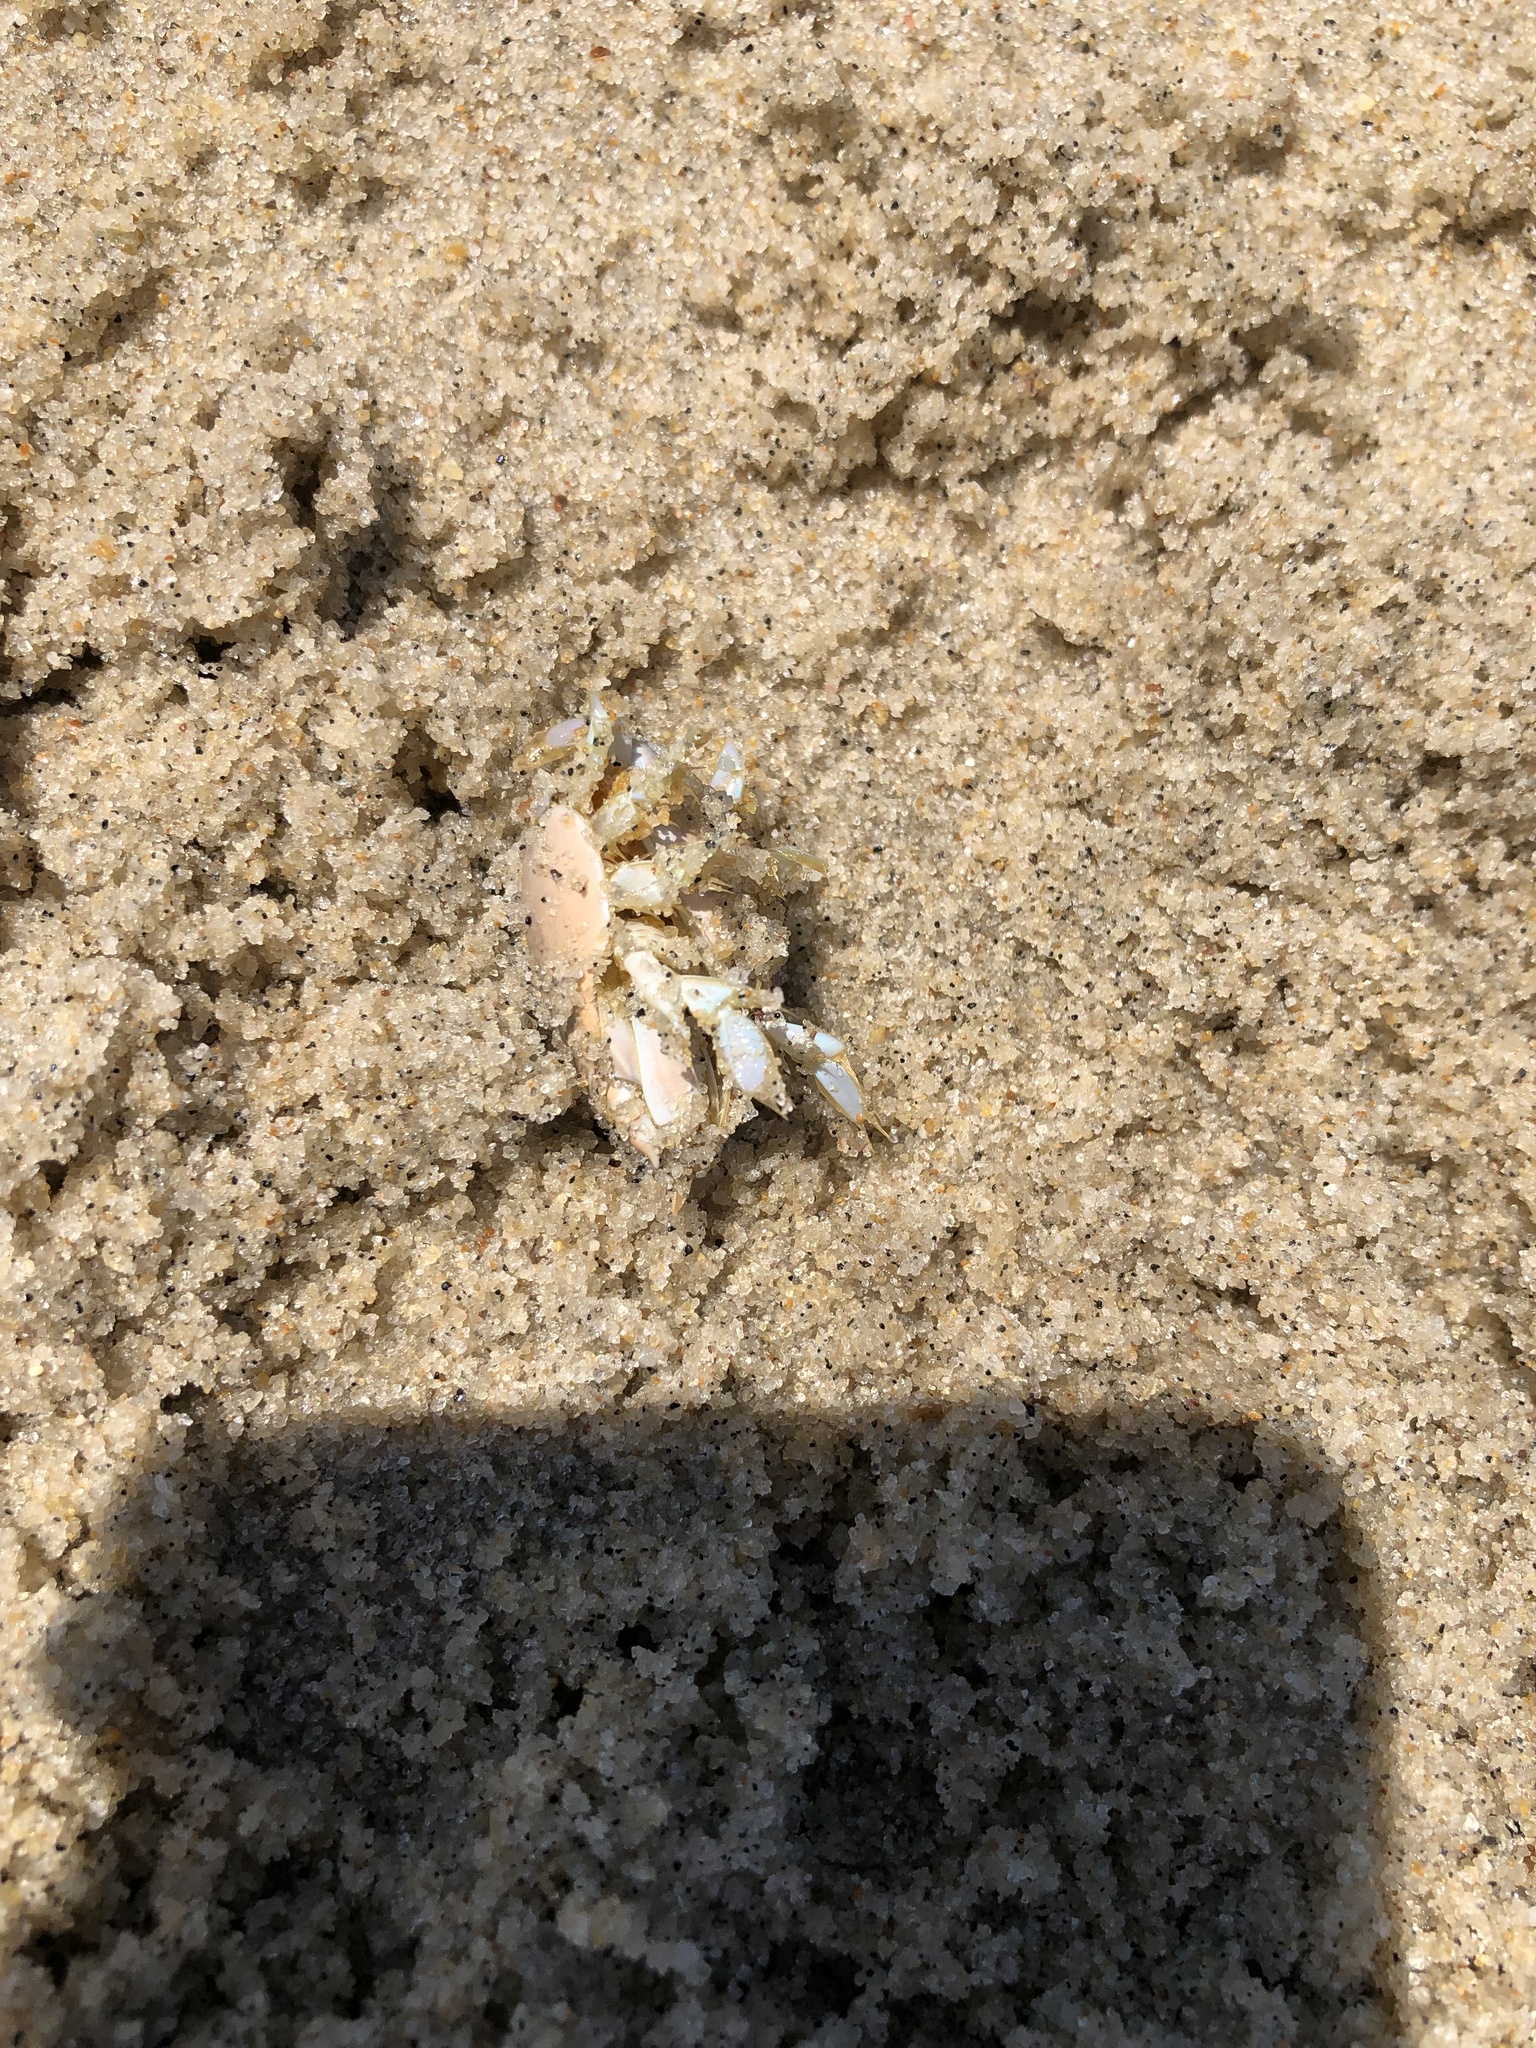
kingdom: Animalia
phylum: Arthropoda
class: Malacostraca
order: Decapoda
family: Hippidae
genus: Emerita
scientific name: Emerita talpoida
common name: Atlantic sand crab
